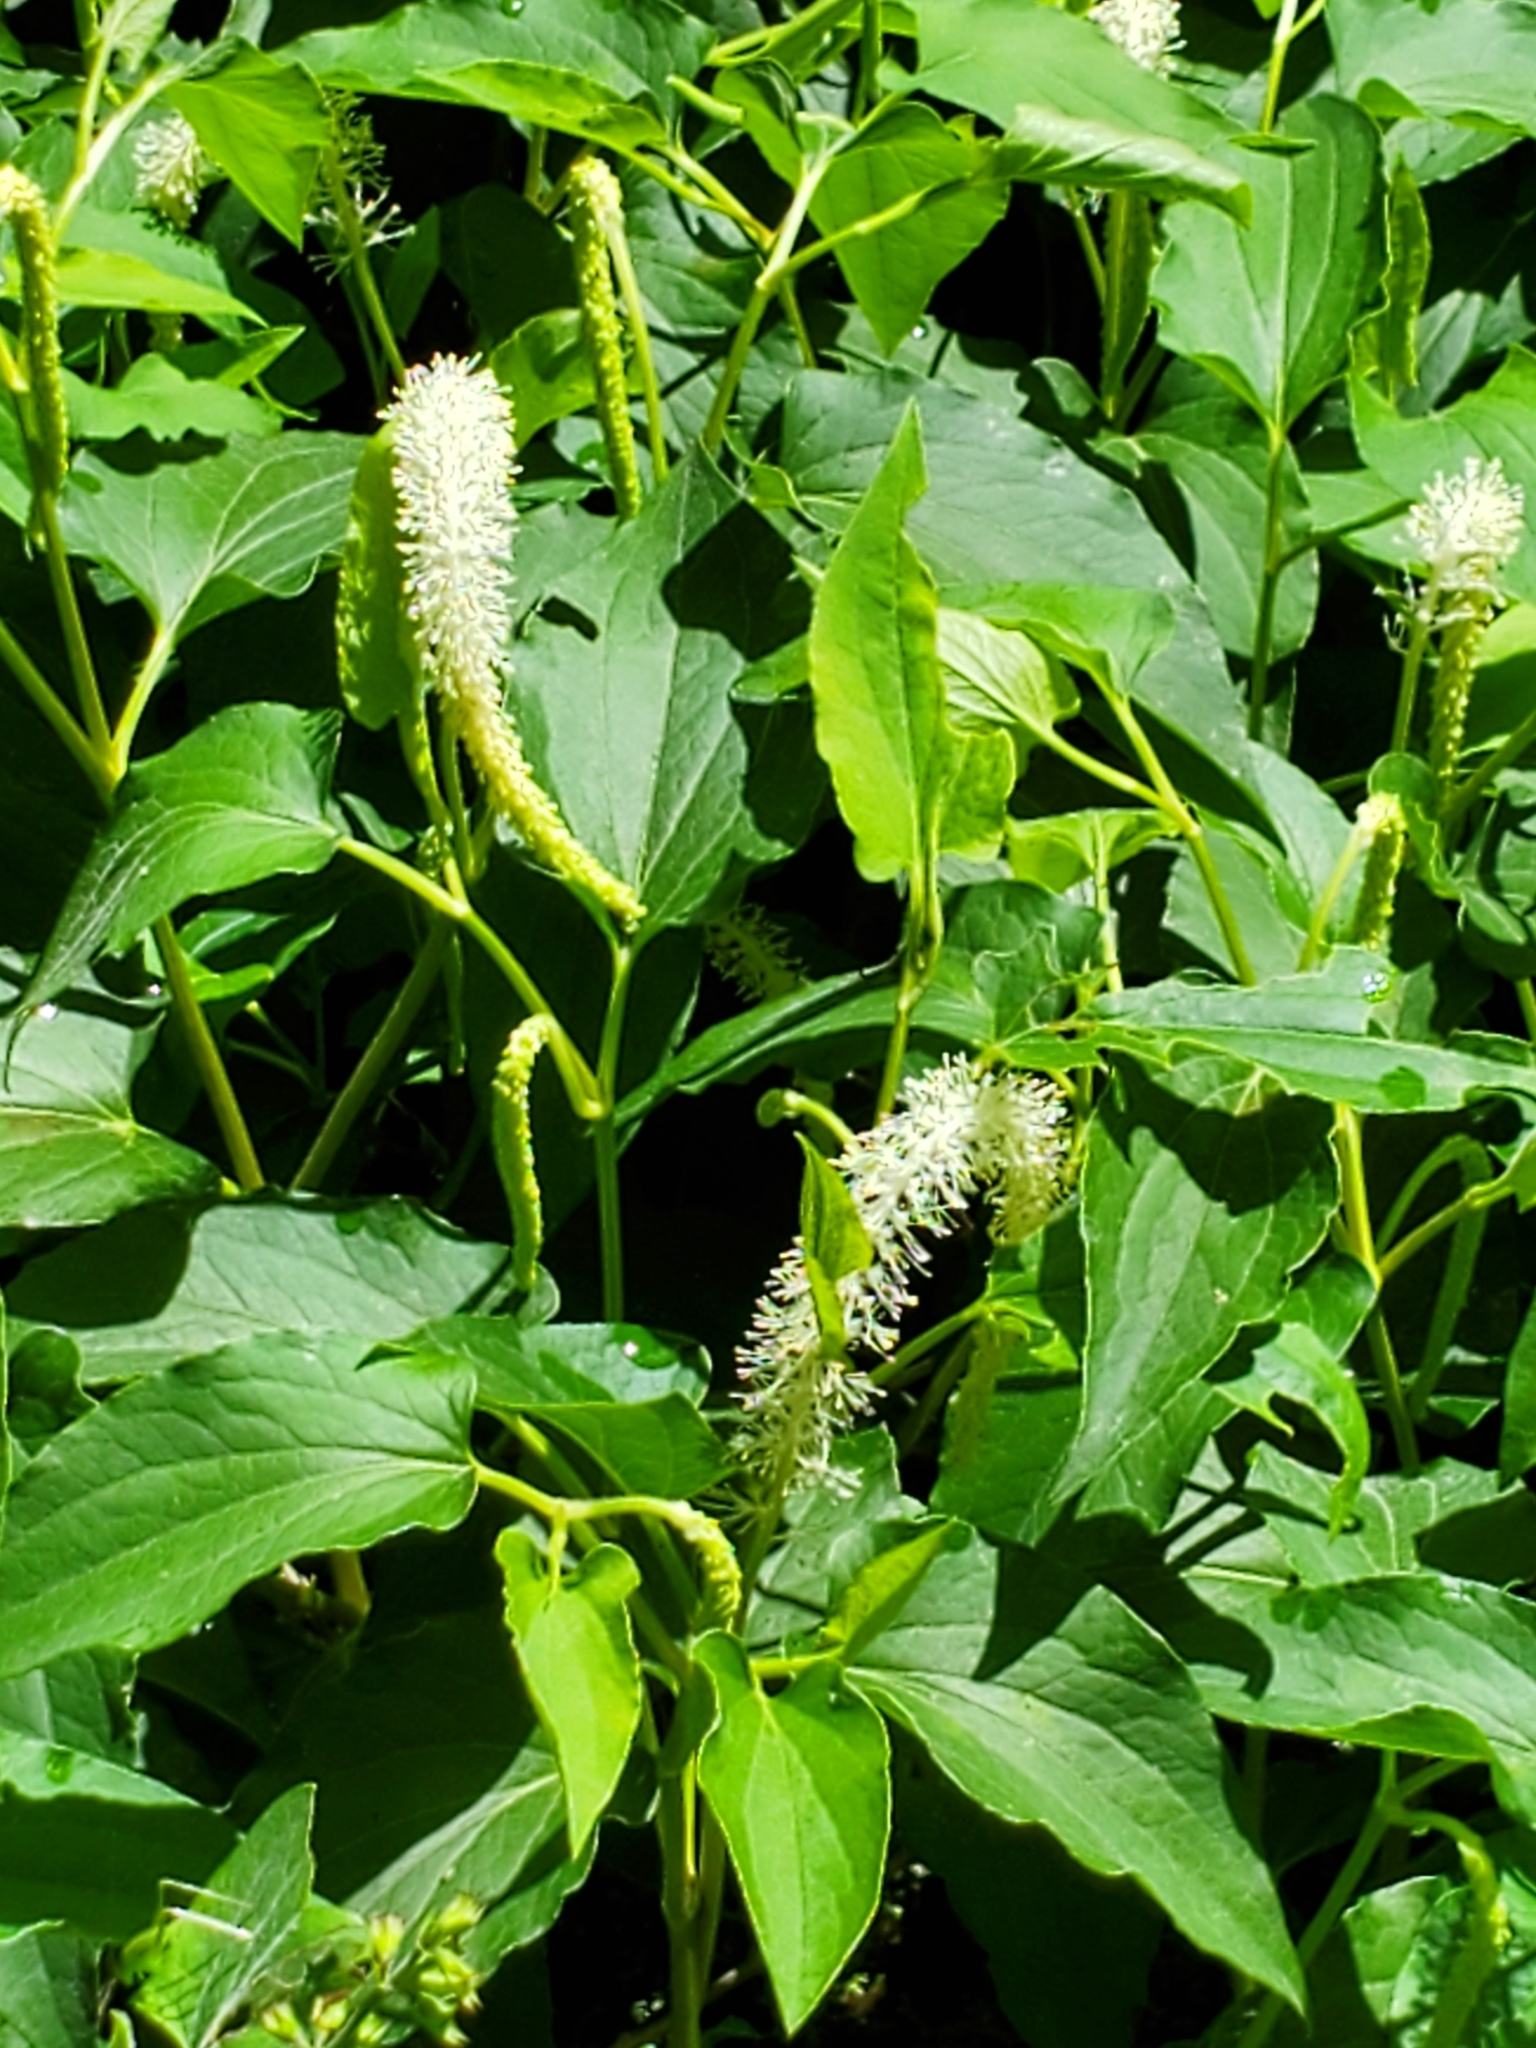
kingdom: Plantae
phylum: Tracheophyta
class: Magnoliopsida
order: Piperales
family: Saururaceae
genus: Saururus
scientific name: Saururus cernuus
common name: Lizard's-tail
